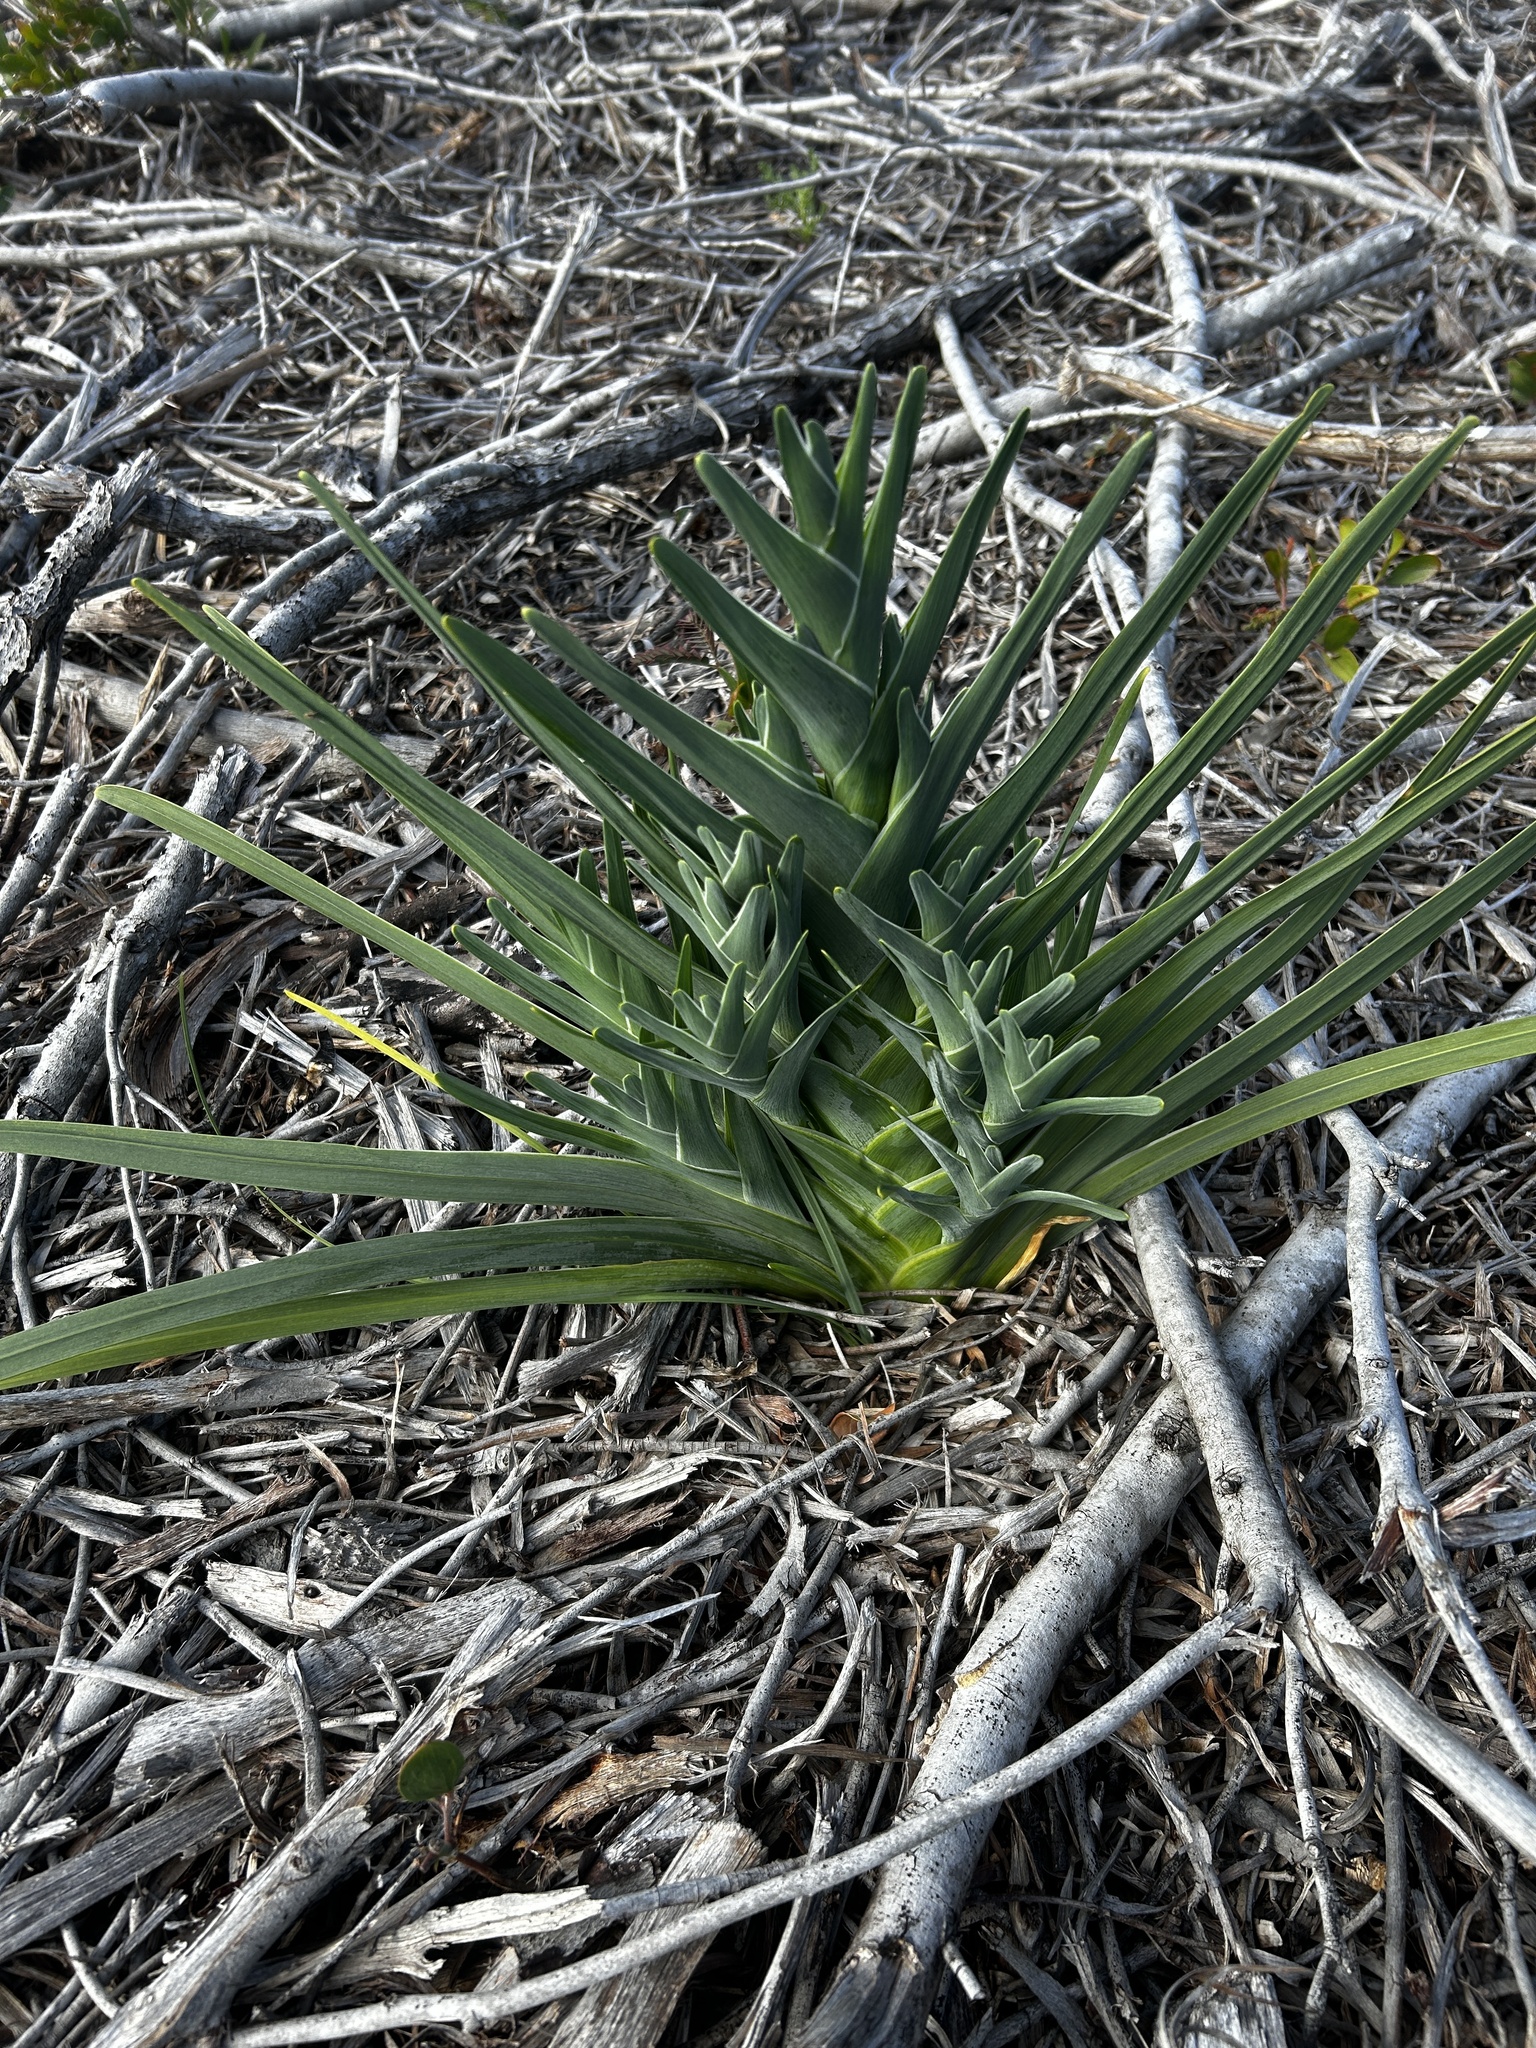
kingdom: Plantae
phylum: Tracheophyta
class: Liliopsida
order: Asparagales
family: Iridaceae
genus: Ferraria
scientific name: Ferraria crispa
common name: Black-flag
